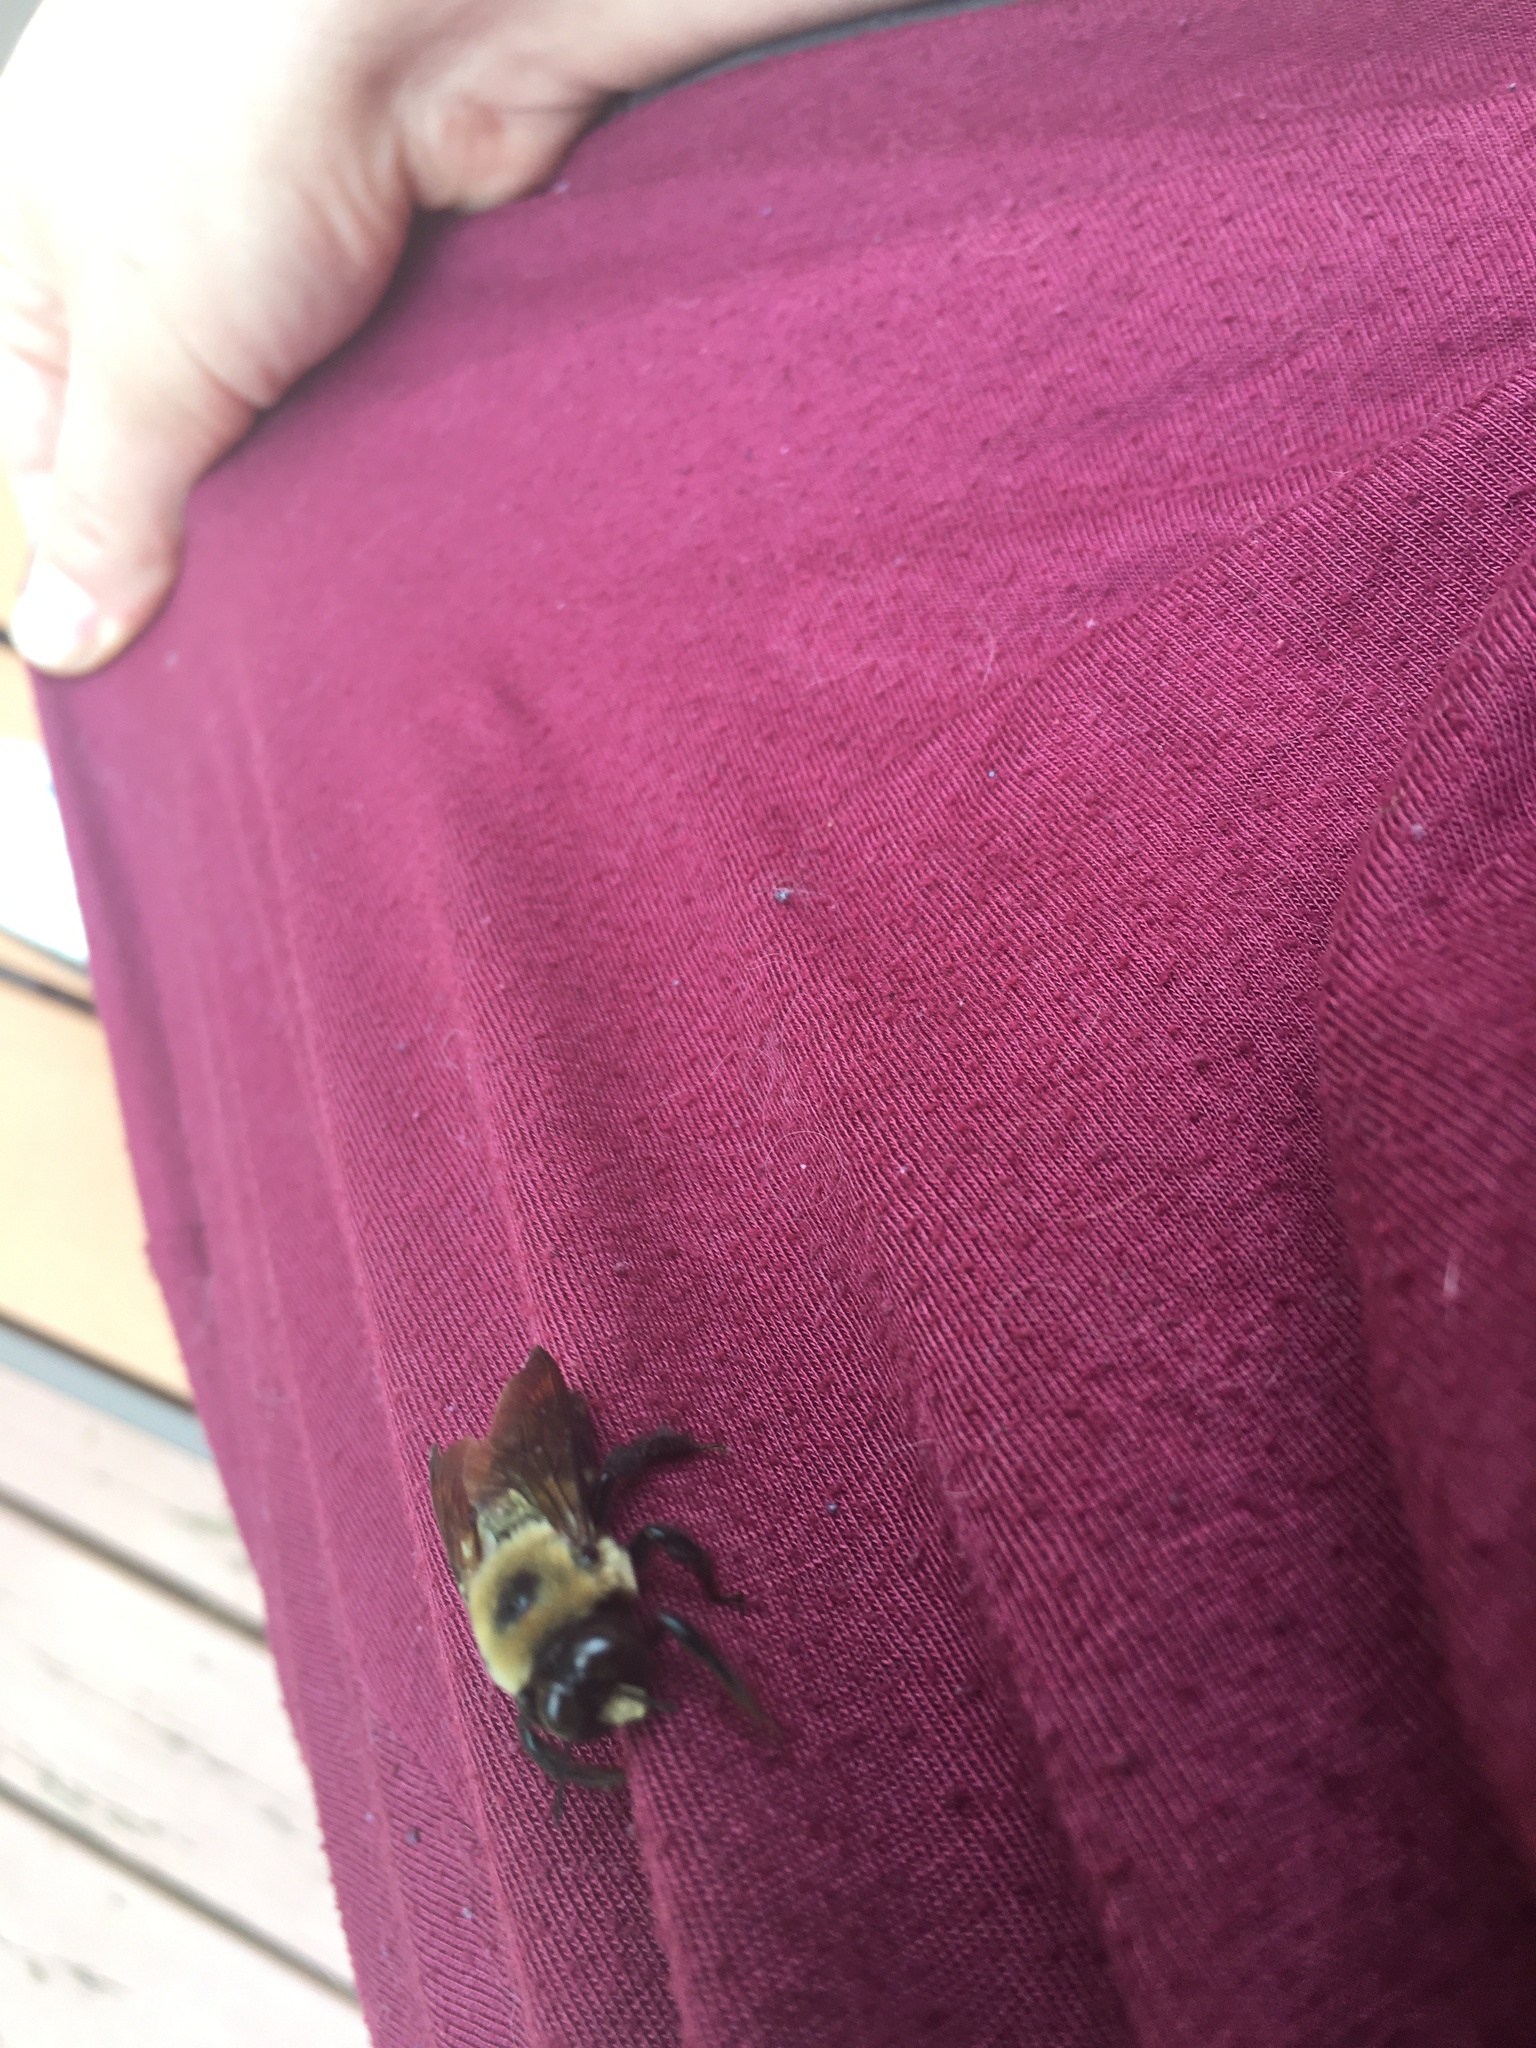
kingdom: Animalia
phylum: Arthropoda
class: Insecta
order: Hymenoptera
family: Apidae
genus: Xylocopa
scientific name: Xylocopa virginica
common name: Carpenter bee
